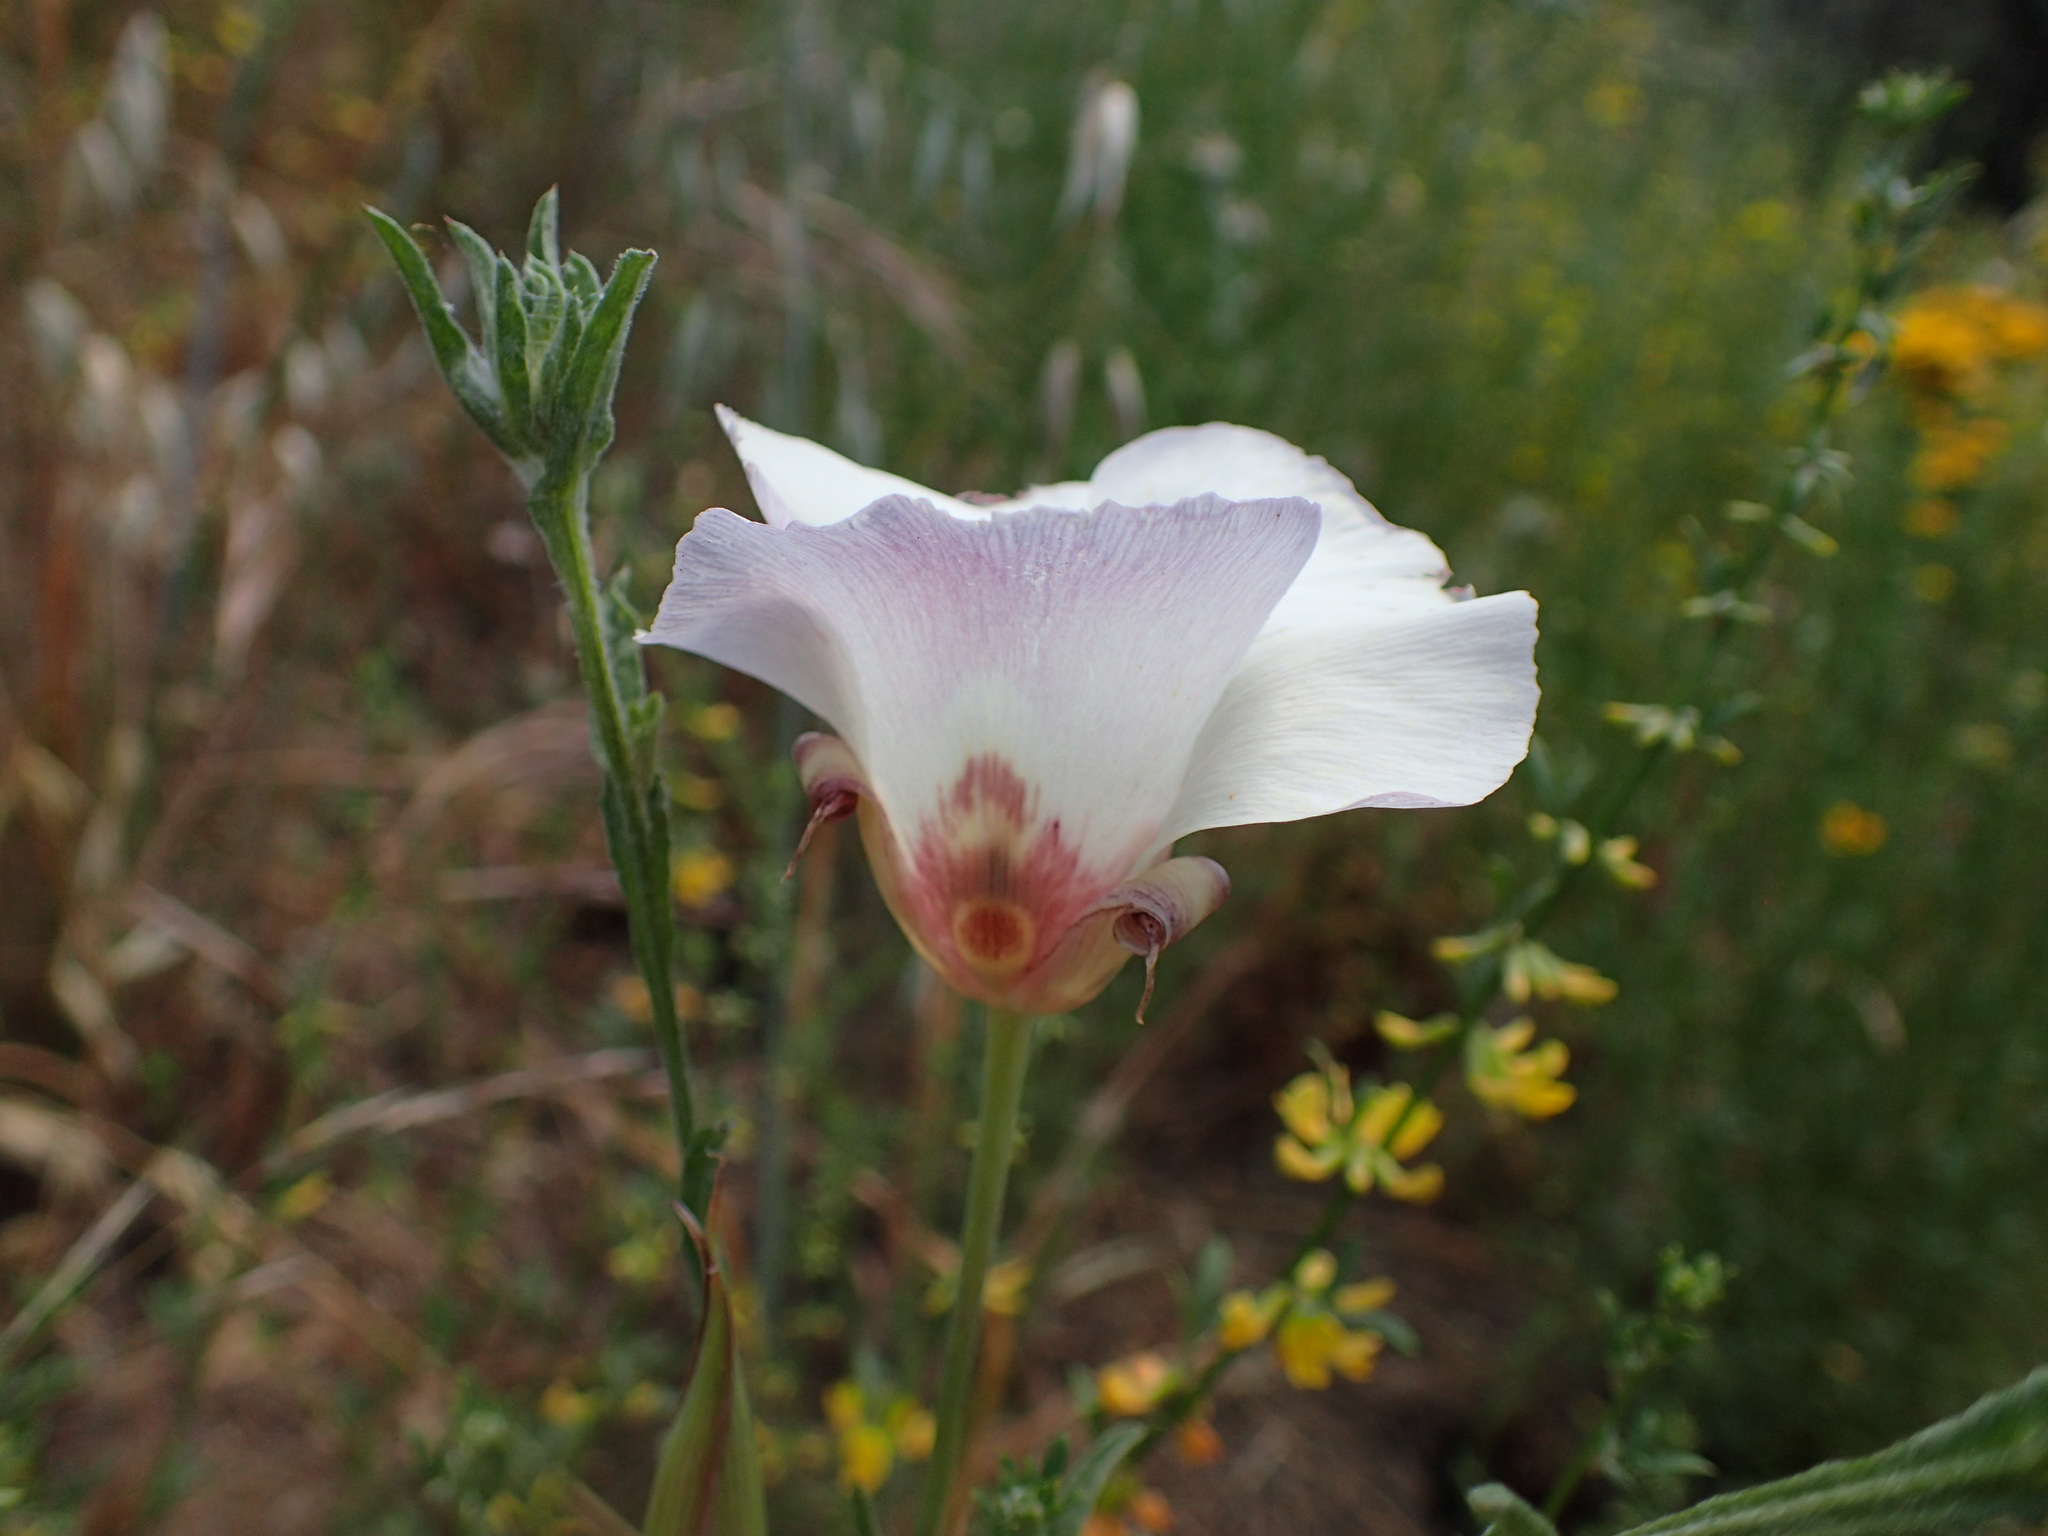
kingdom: Plantae
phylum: Tracheophyta
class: Liliopsida
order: Liliales
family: Liliaceae
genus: Calochortus
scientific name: Calochortus venustus
